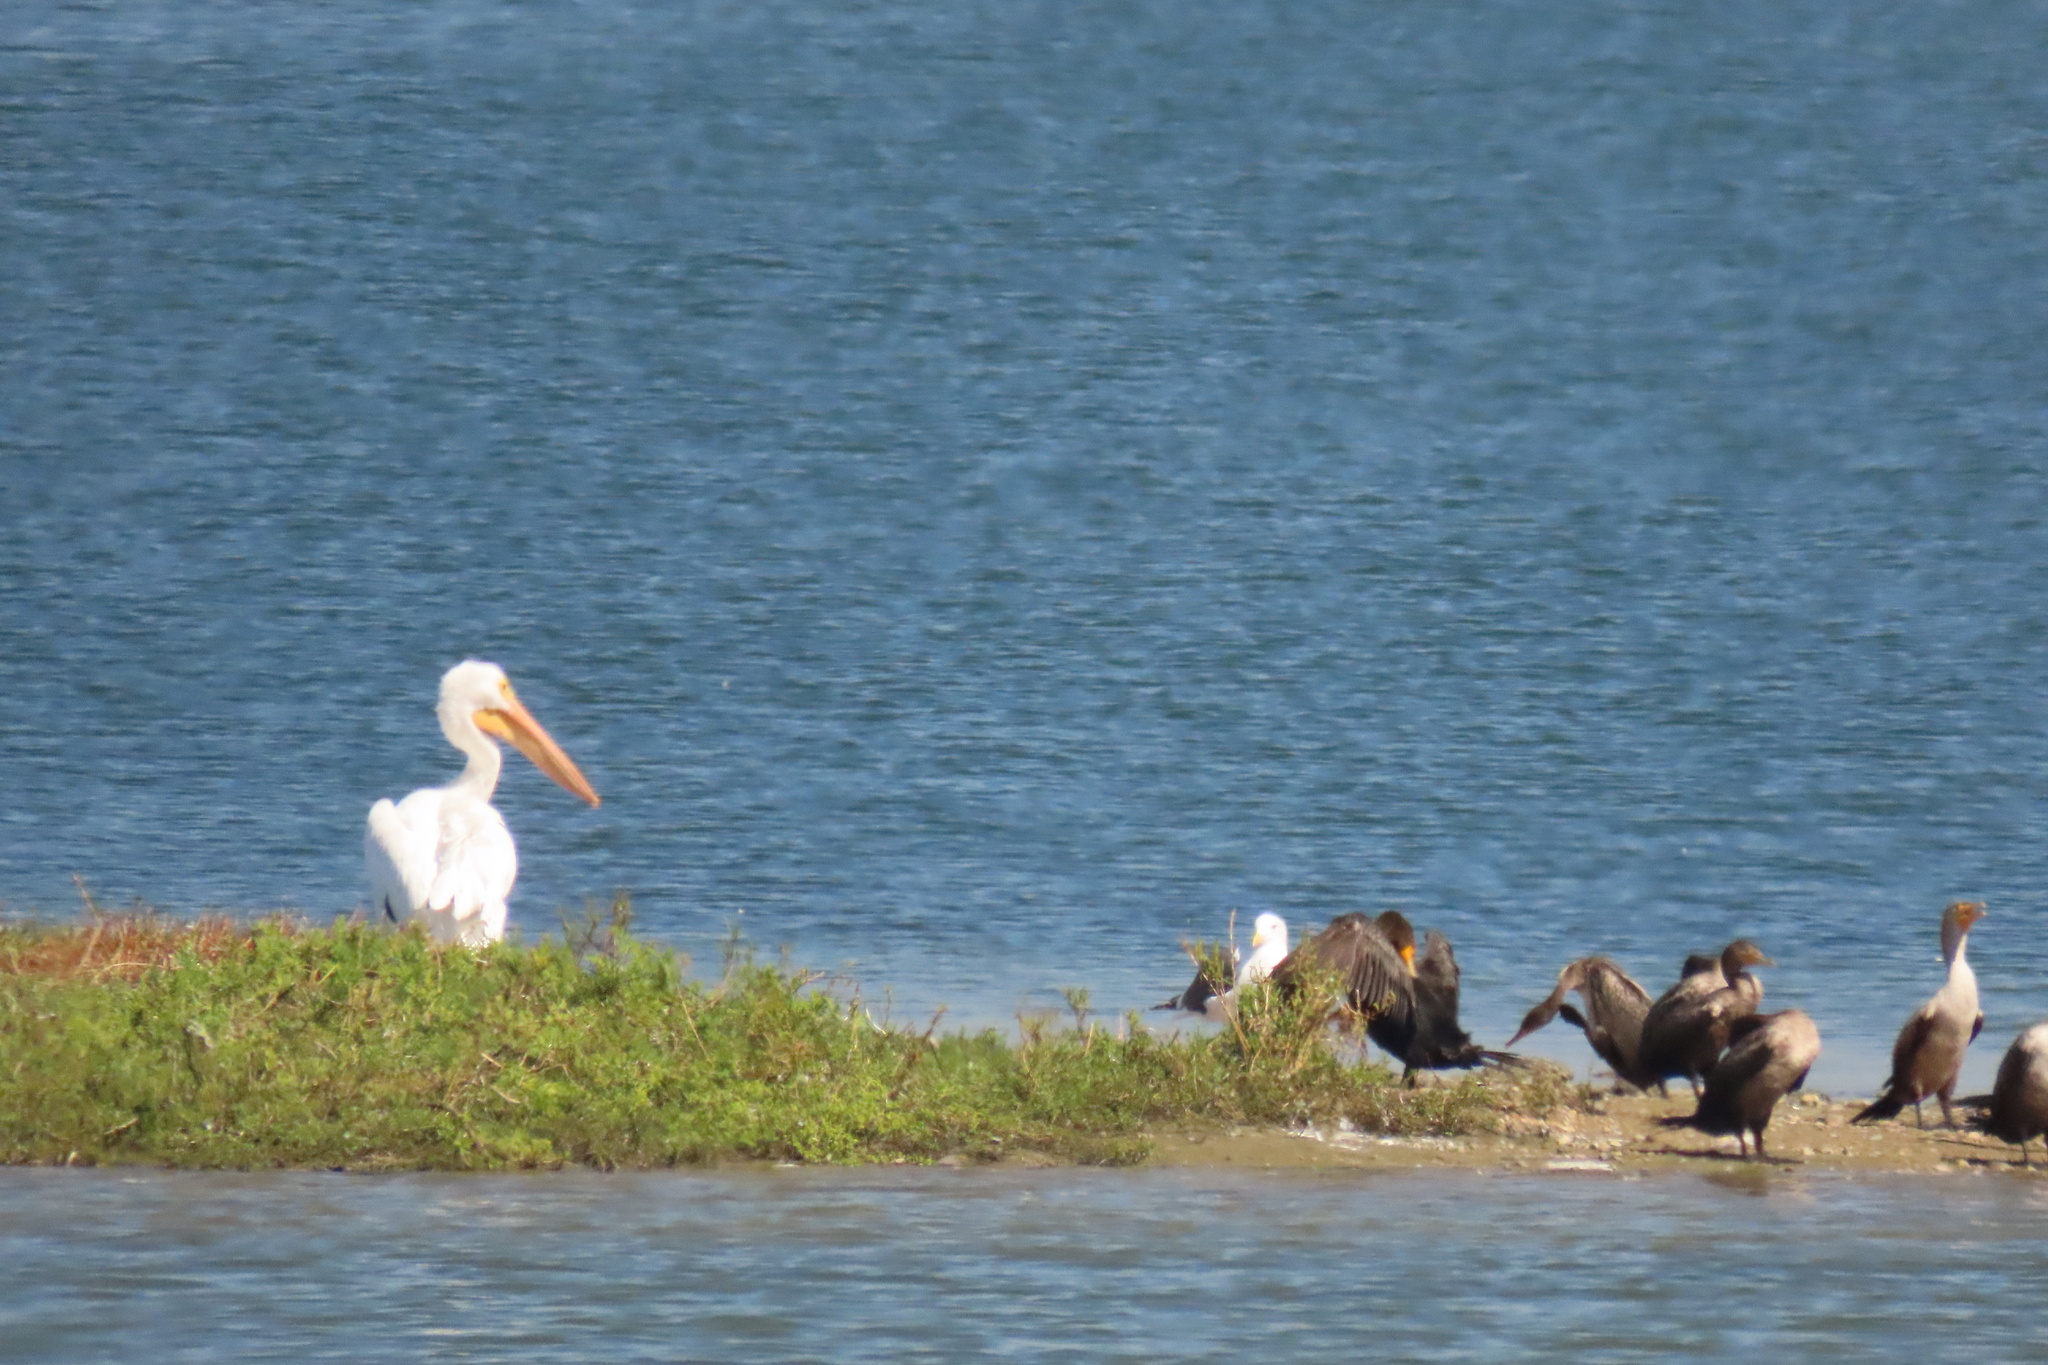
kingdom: Animalia
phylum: Chordata
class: Aves
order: Pelecaniformes
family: Pelecanidae
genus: Pelecanus
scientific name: Pelecanus erythrorhynchos
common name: American white pelican
